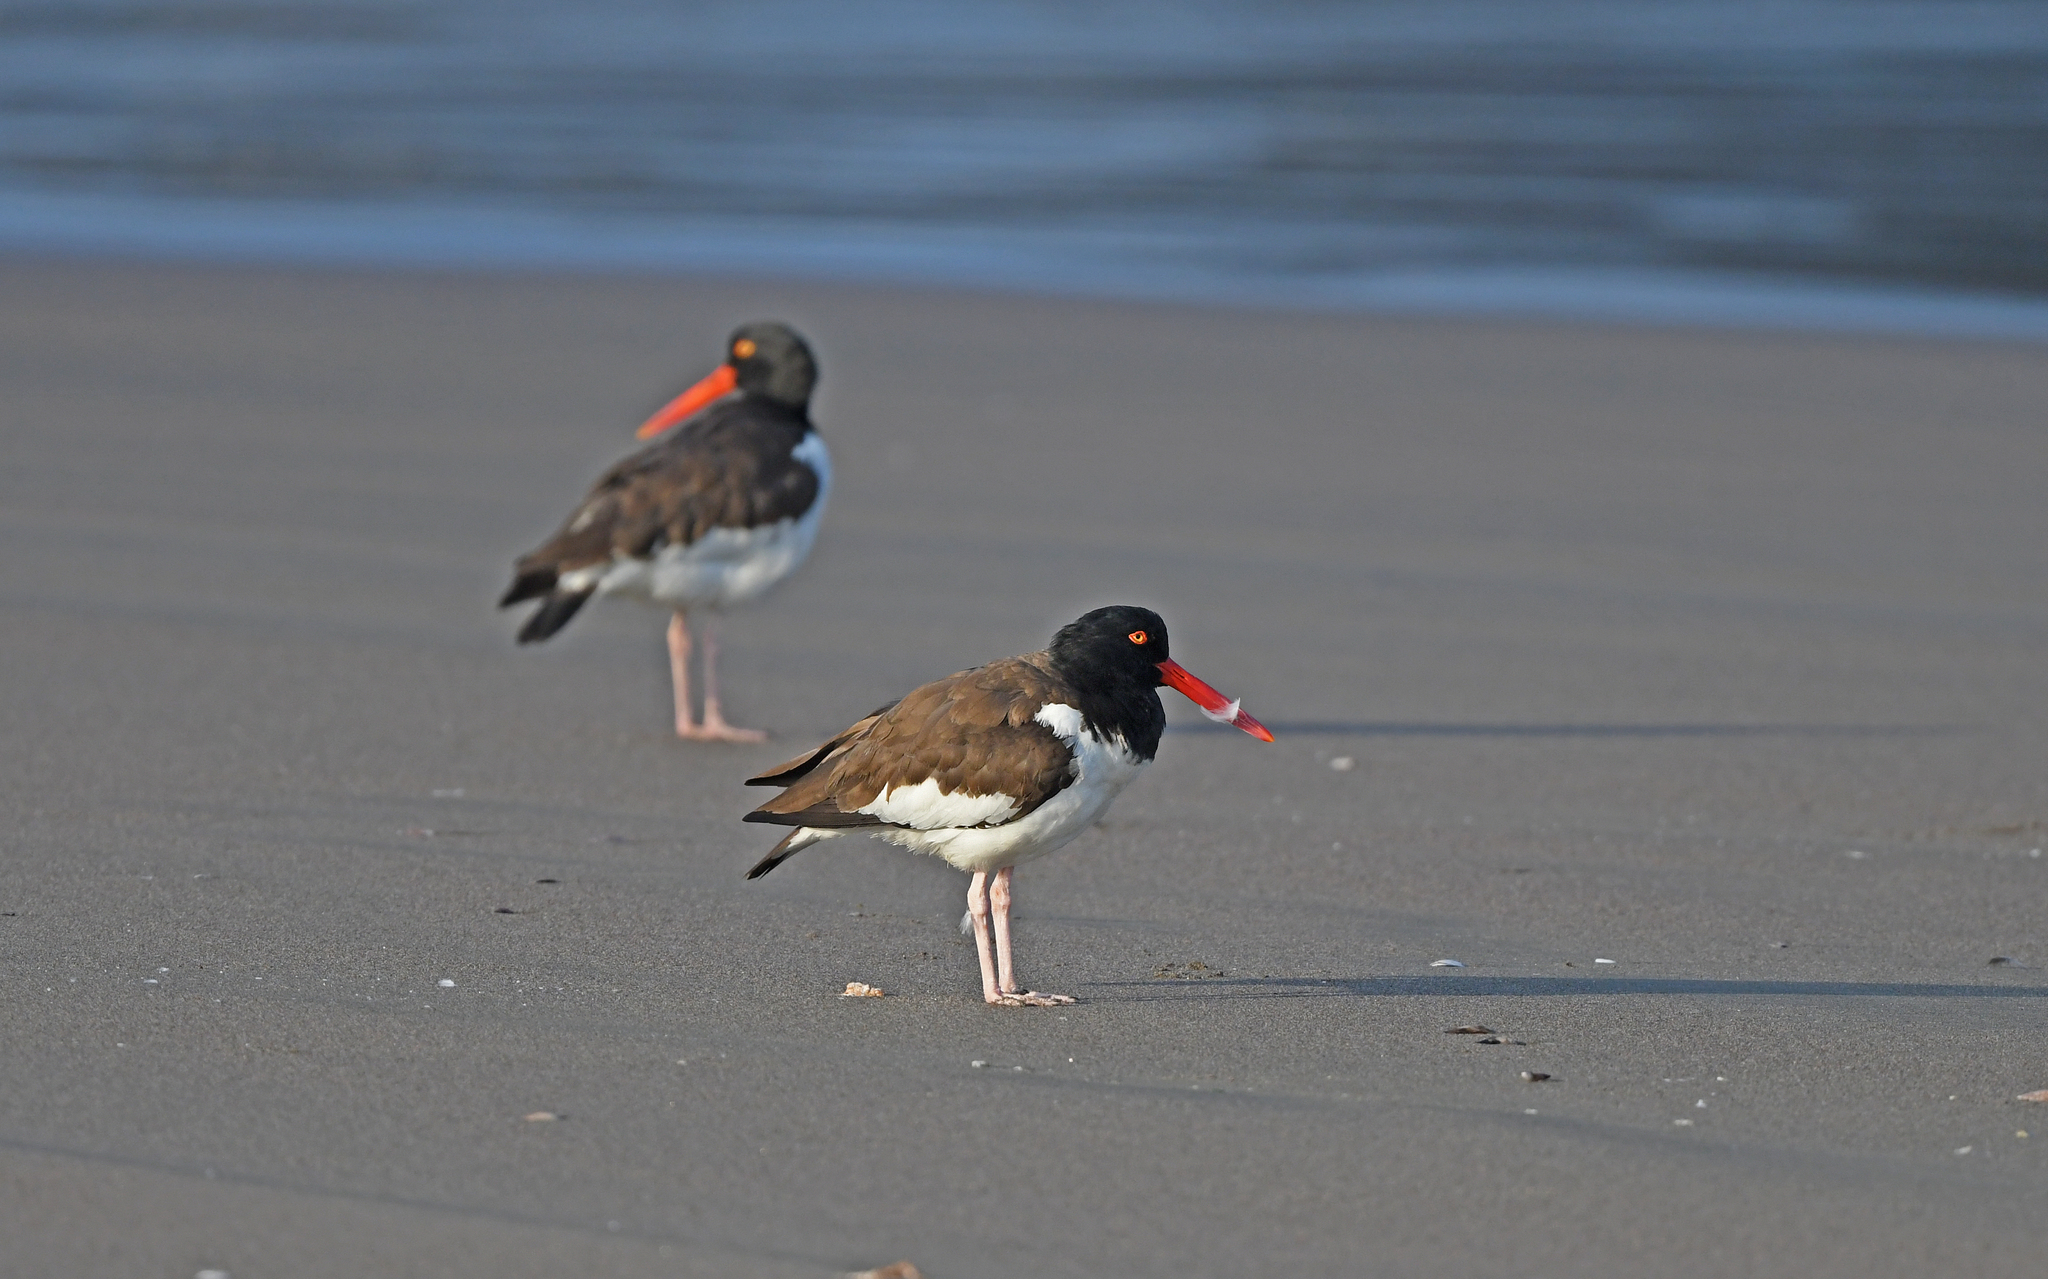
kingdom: Animalia
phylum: Chordata
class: Aves
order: Charadriiformes
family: Haematopodidae
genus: Haematopus
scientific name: Haematopus palliatus
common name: American oystercatcher
